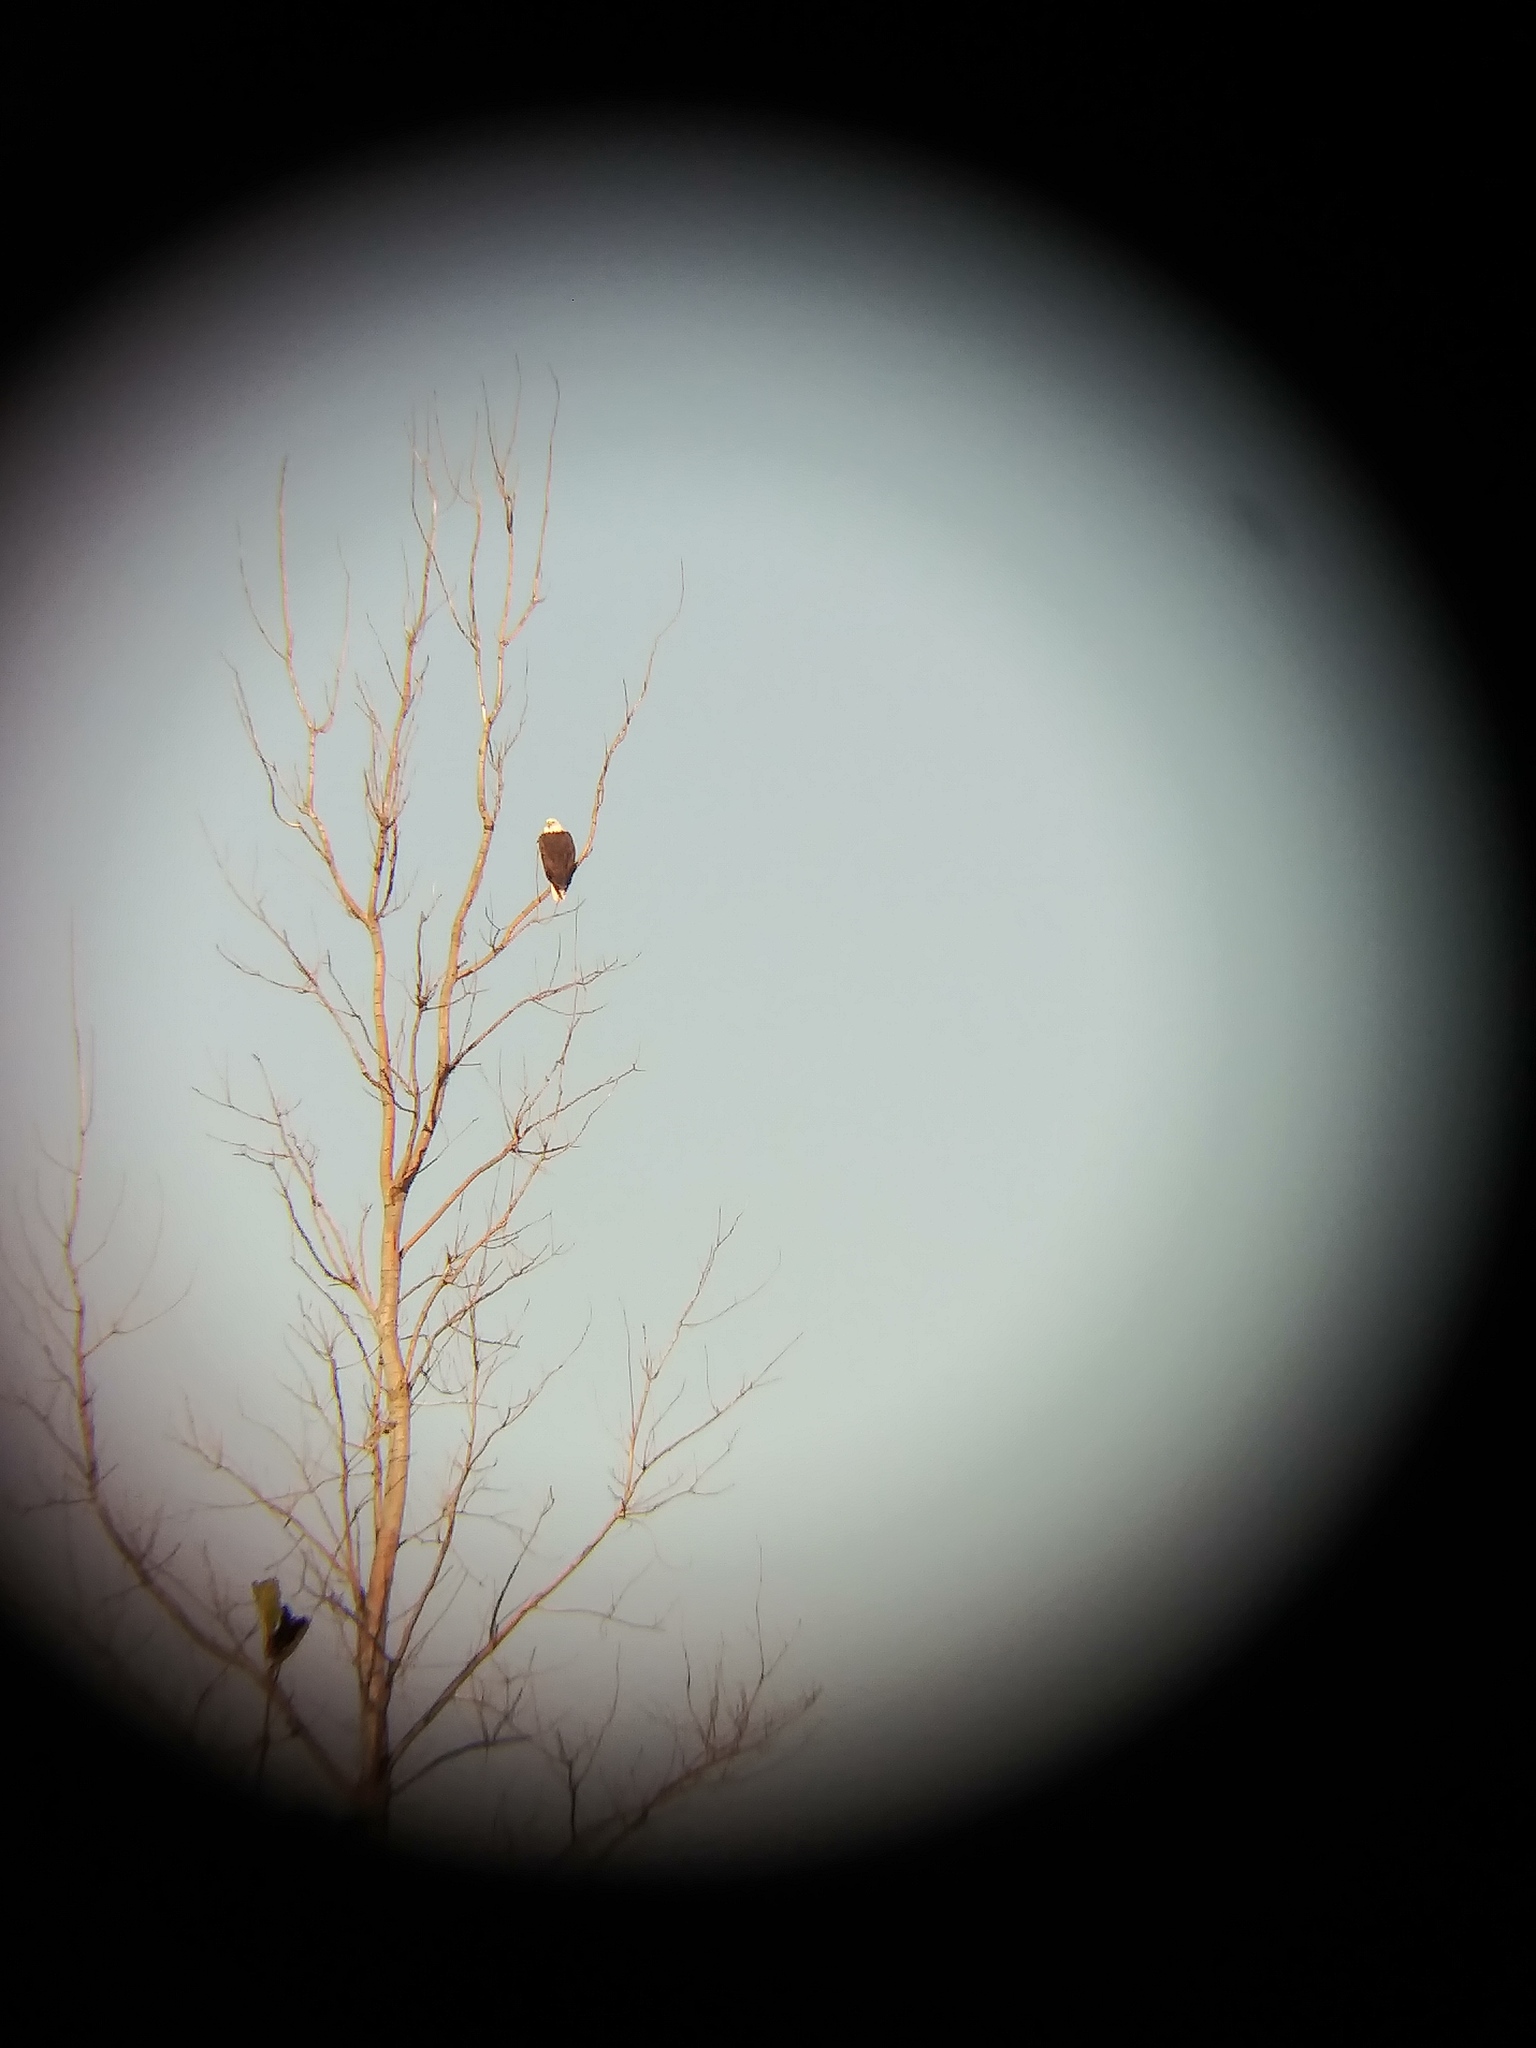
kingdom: Animalia
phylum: Chordata
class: Aves
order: Accipitriformes
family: Accipitridae
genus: Haliaeetus
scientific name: Haliaeetus leucocephalus
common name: Bald eagle
